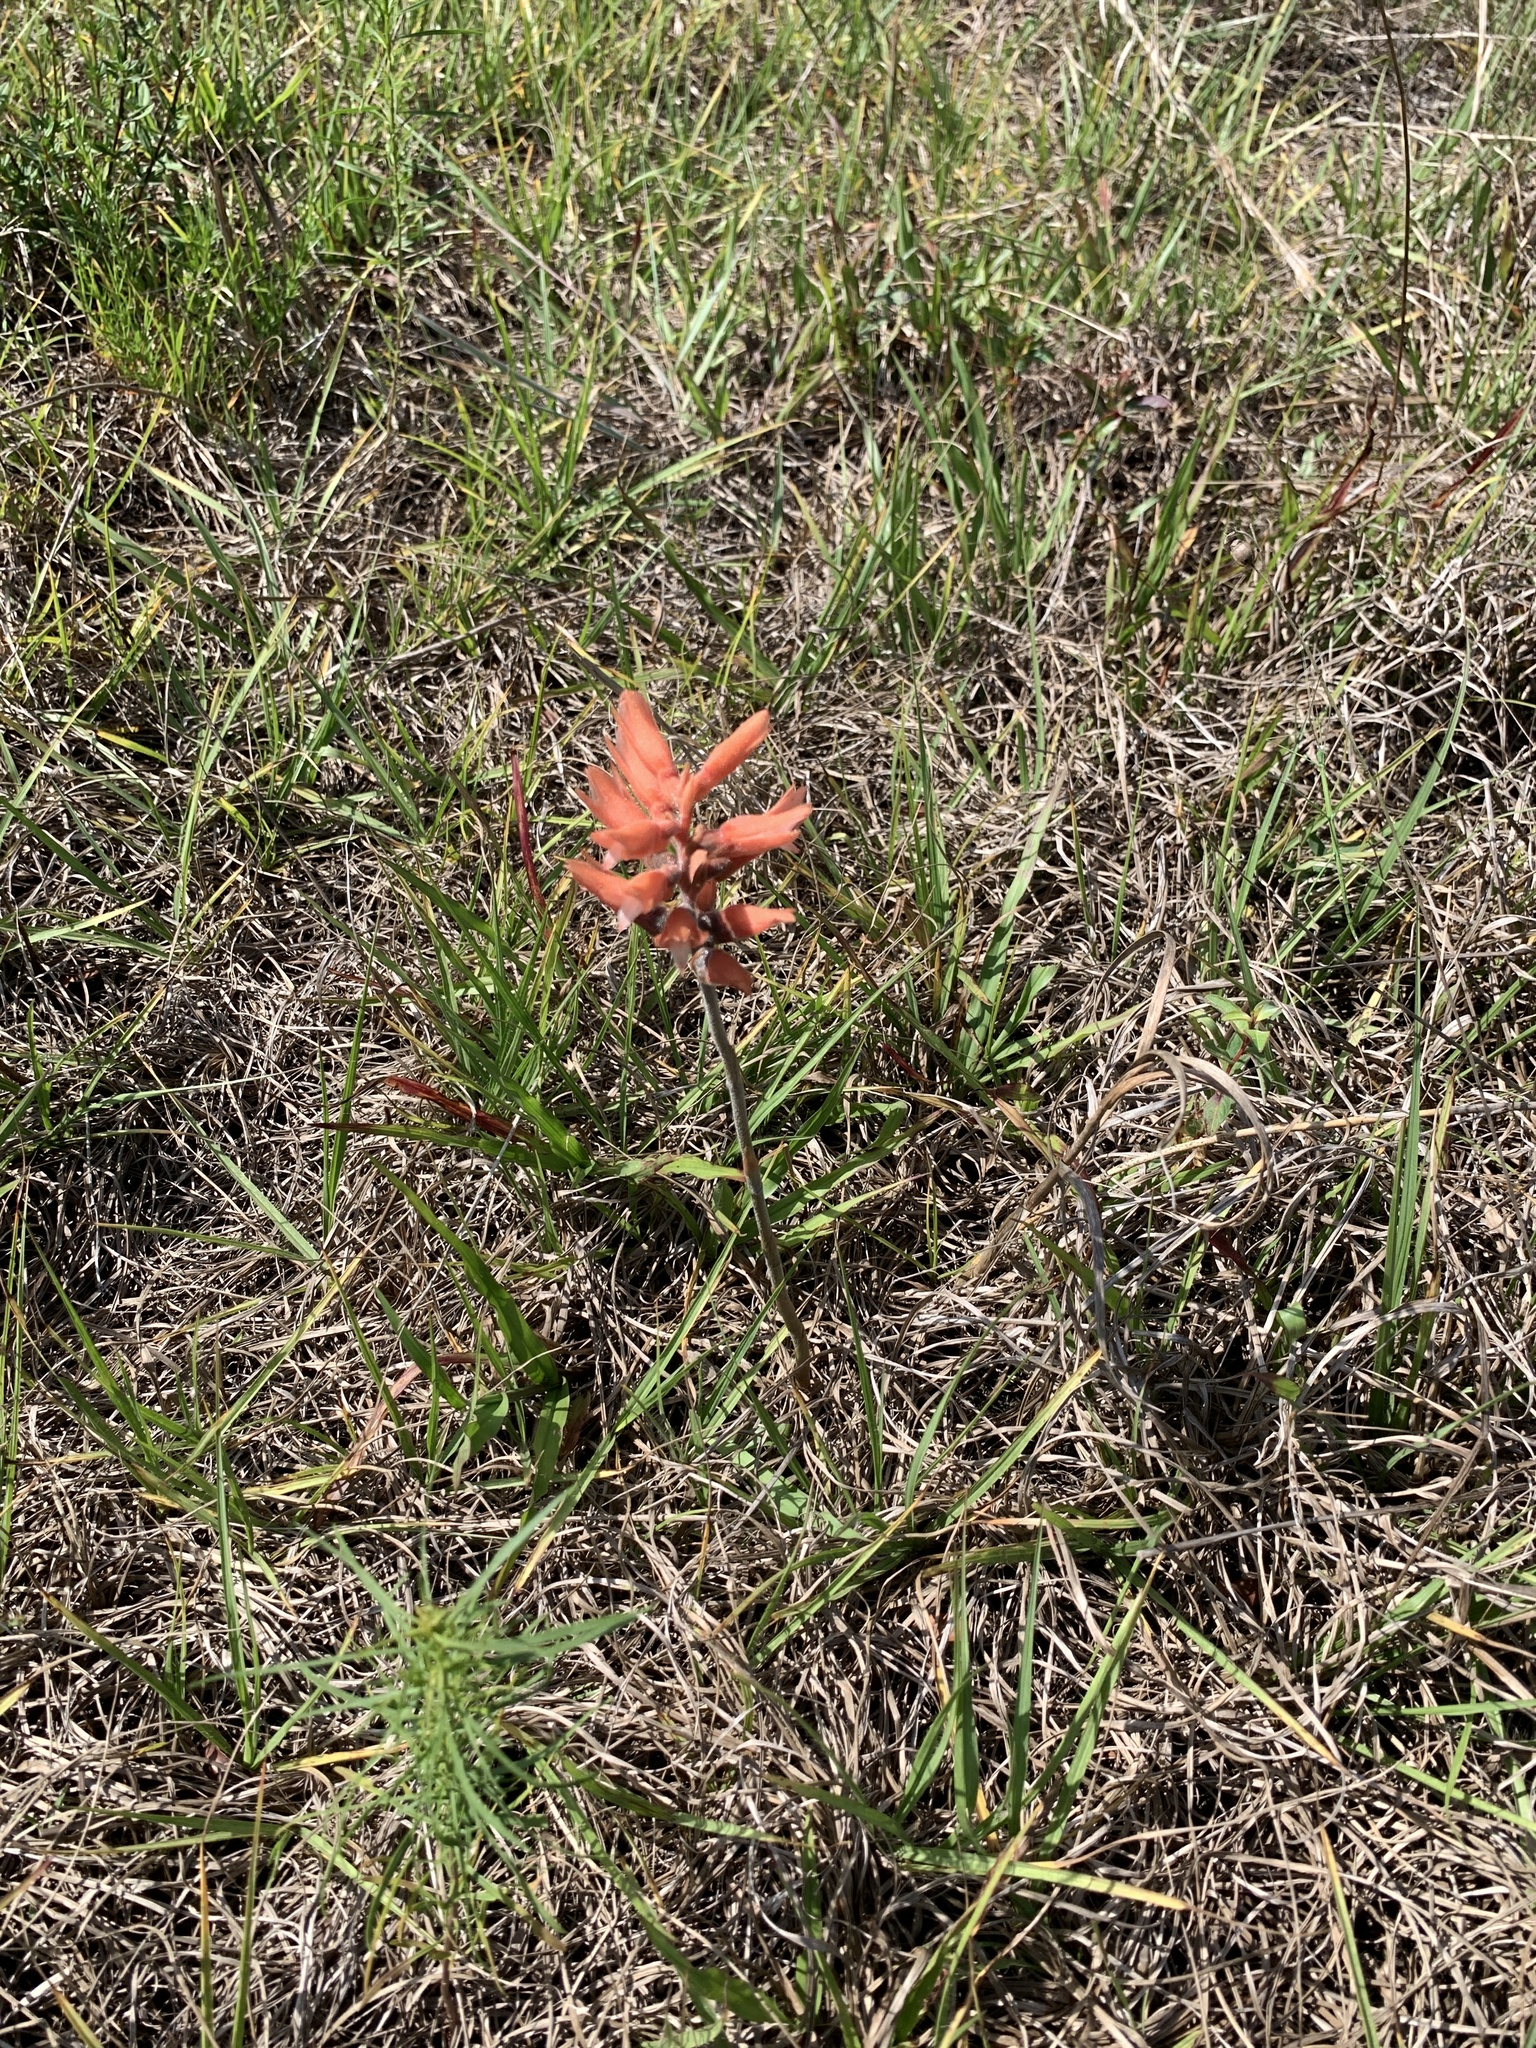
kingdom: Plantae
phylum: Tracheophyta
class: Liliopsida
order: Asparagales
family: Orchidaceae
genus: Sacoila
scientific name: Sacoila lanceolata
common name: Leafless beaked ladiestresses
